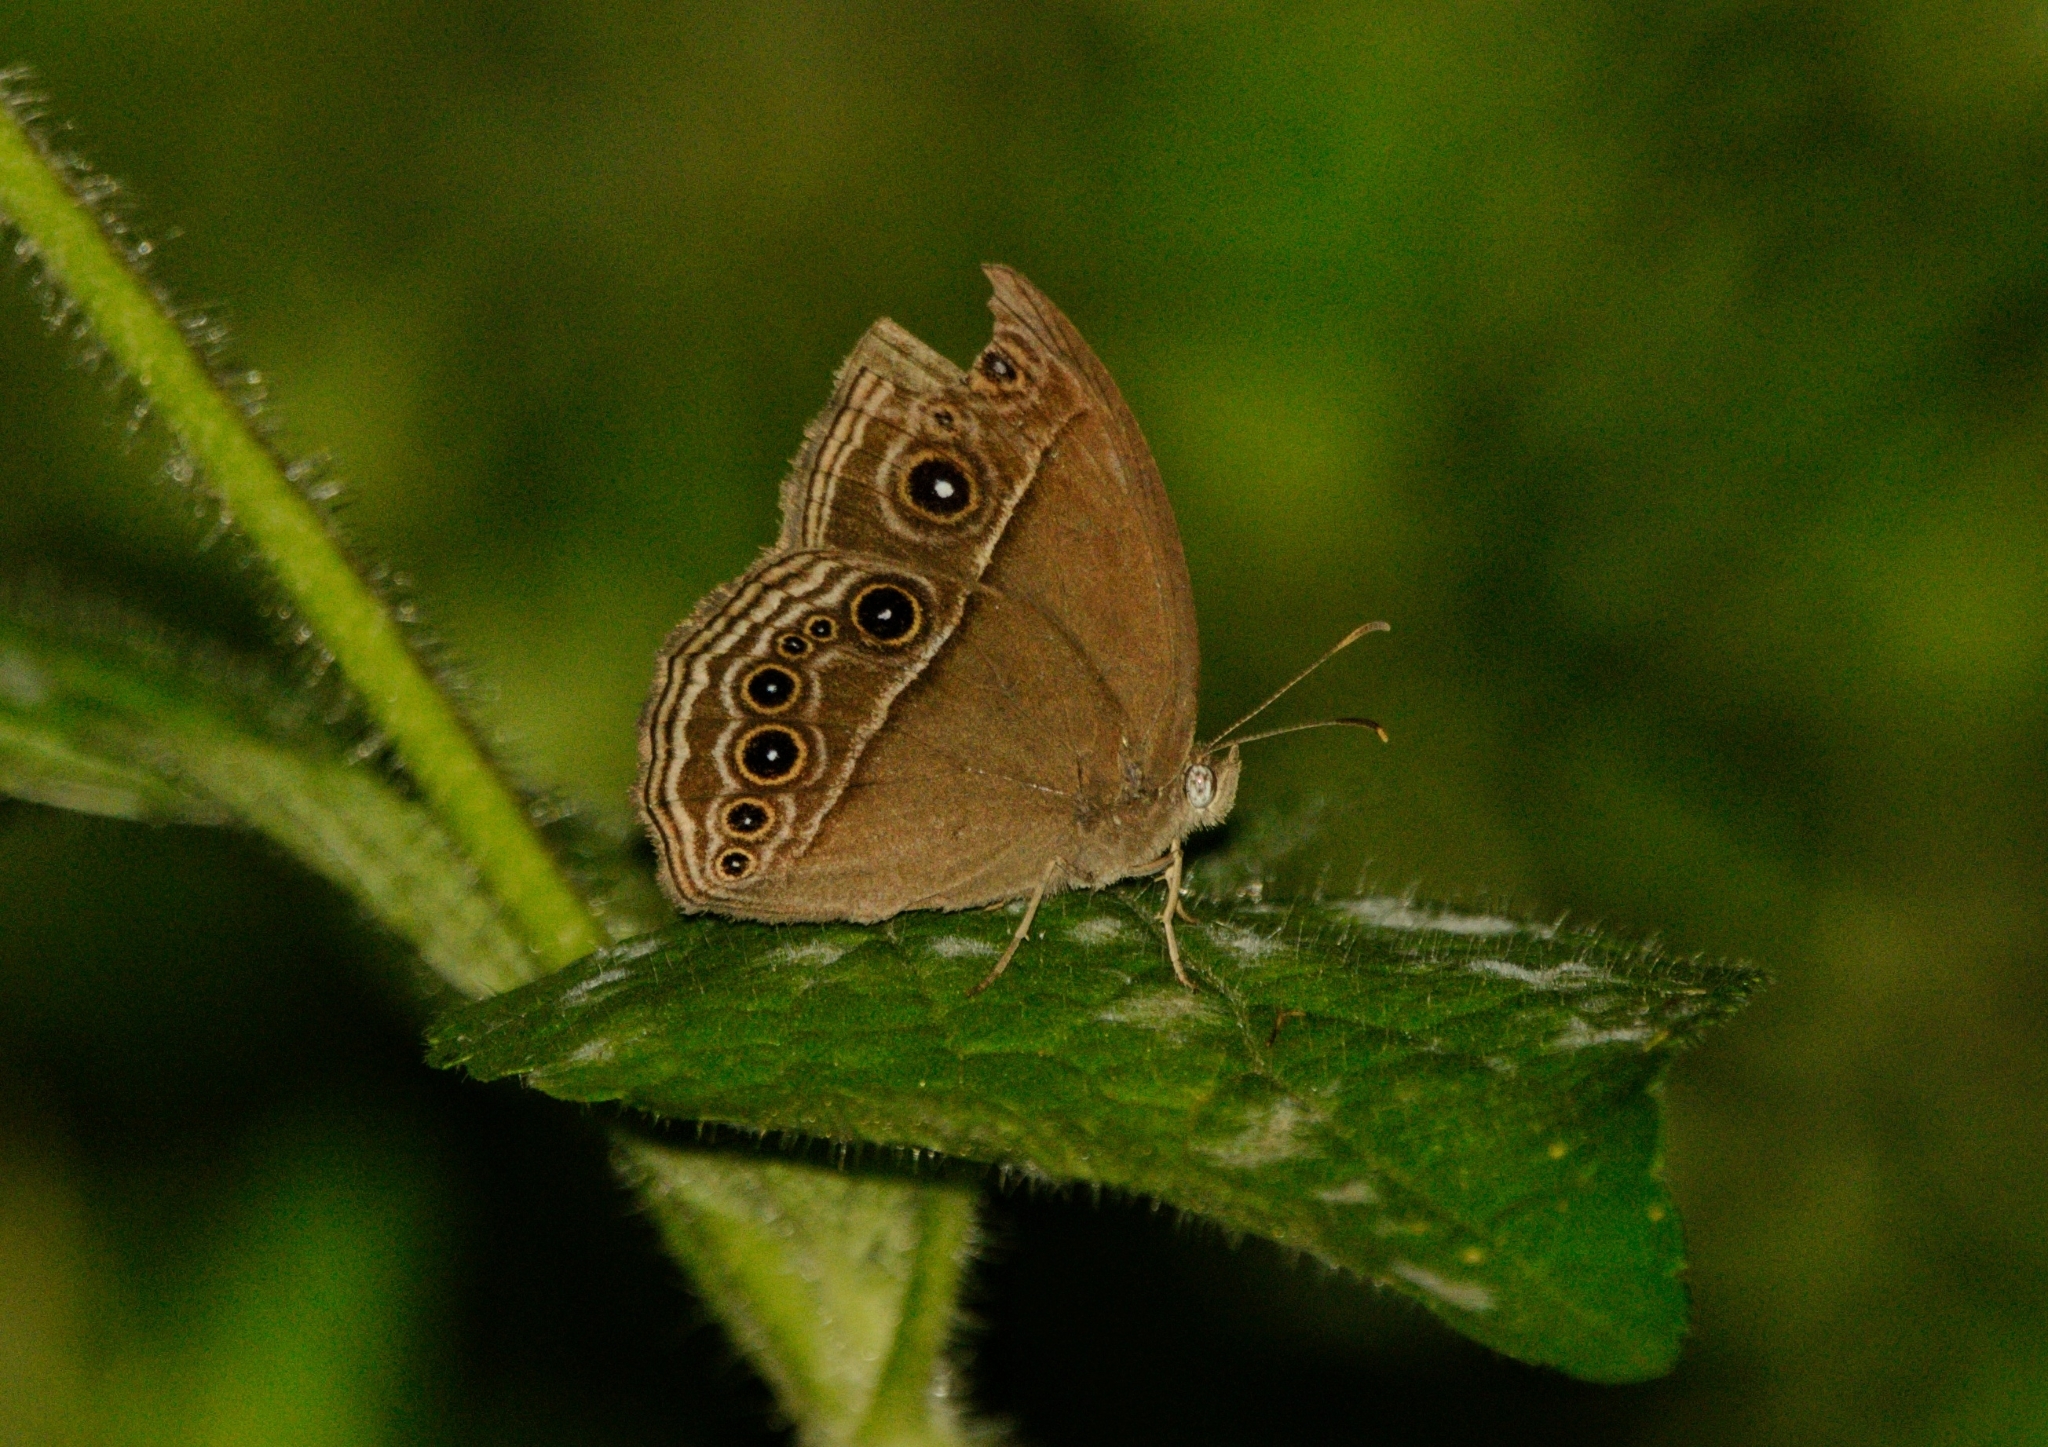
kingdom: Animalia
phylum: Arthropoda
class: Insecta
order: Lepidoptera
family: Nymphalidae
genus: Mycalesis
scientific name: Mycalesis mineus
